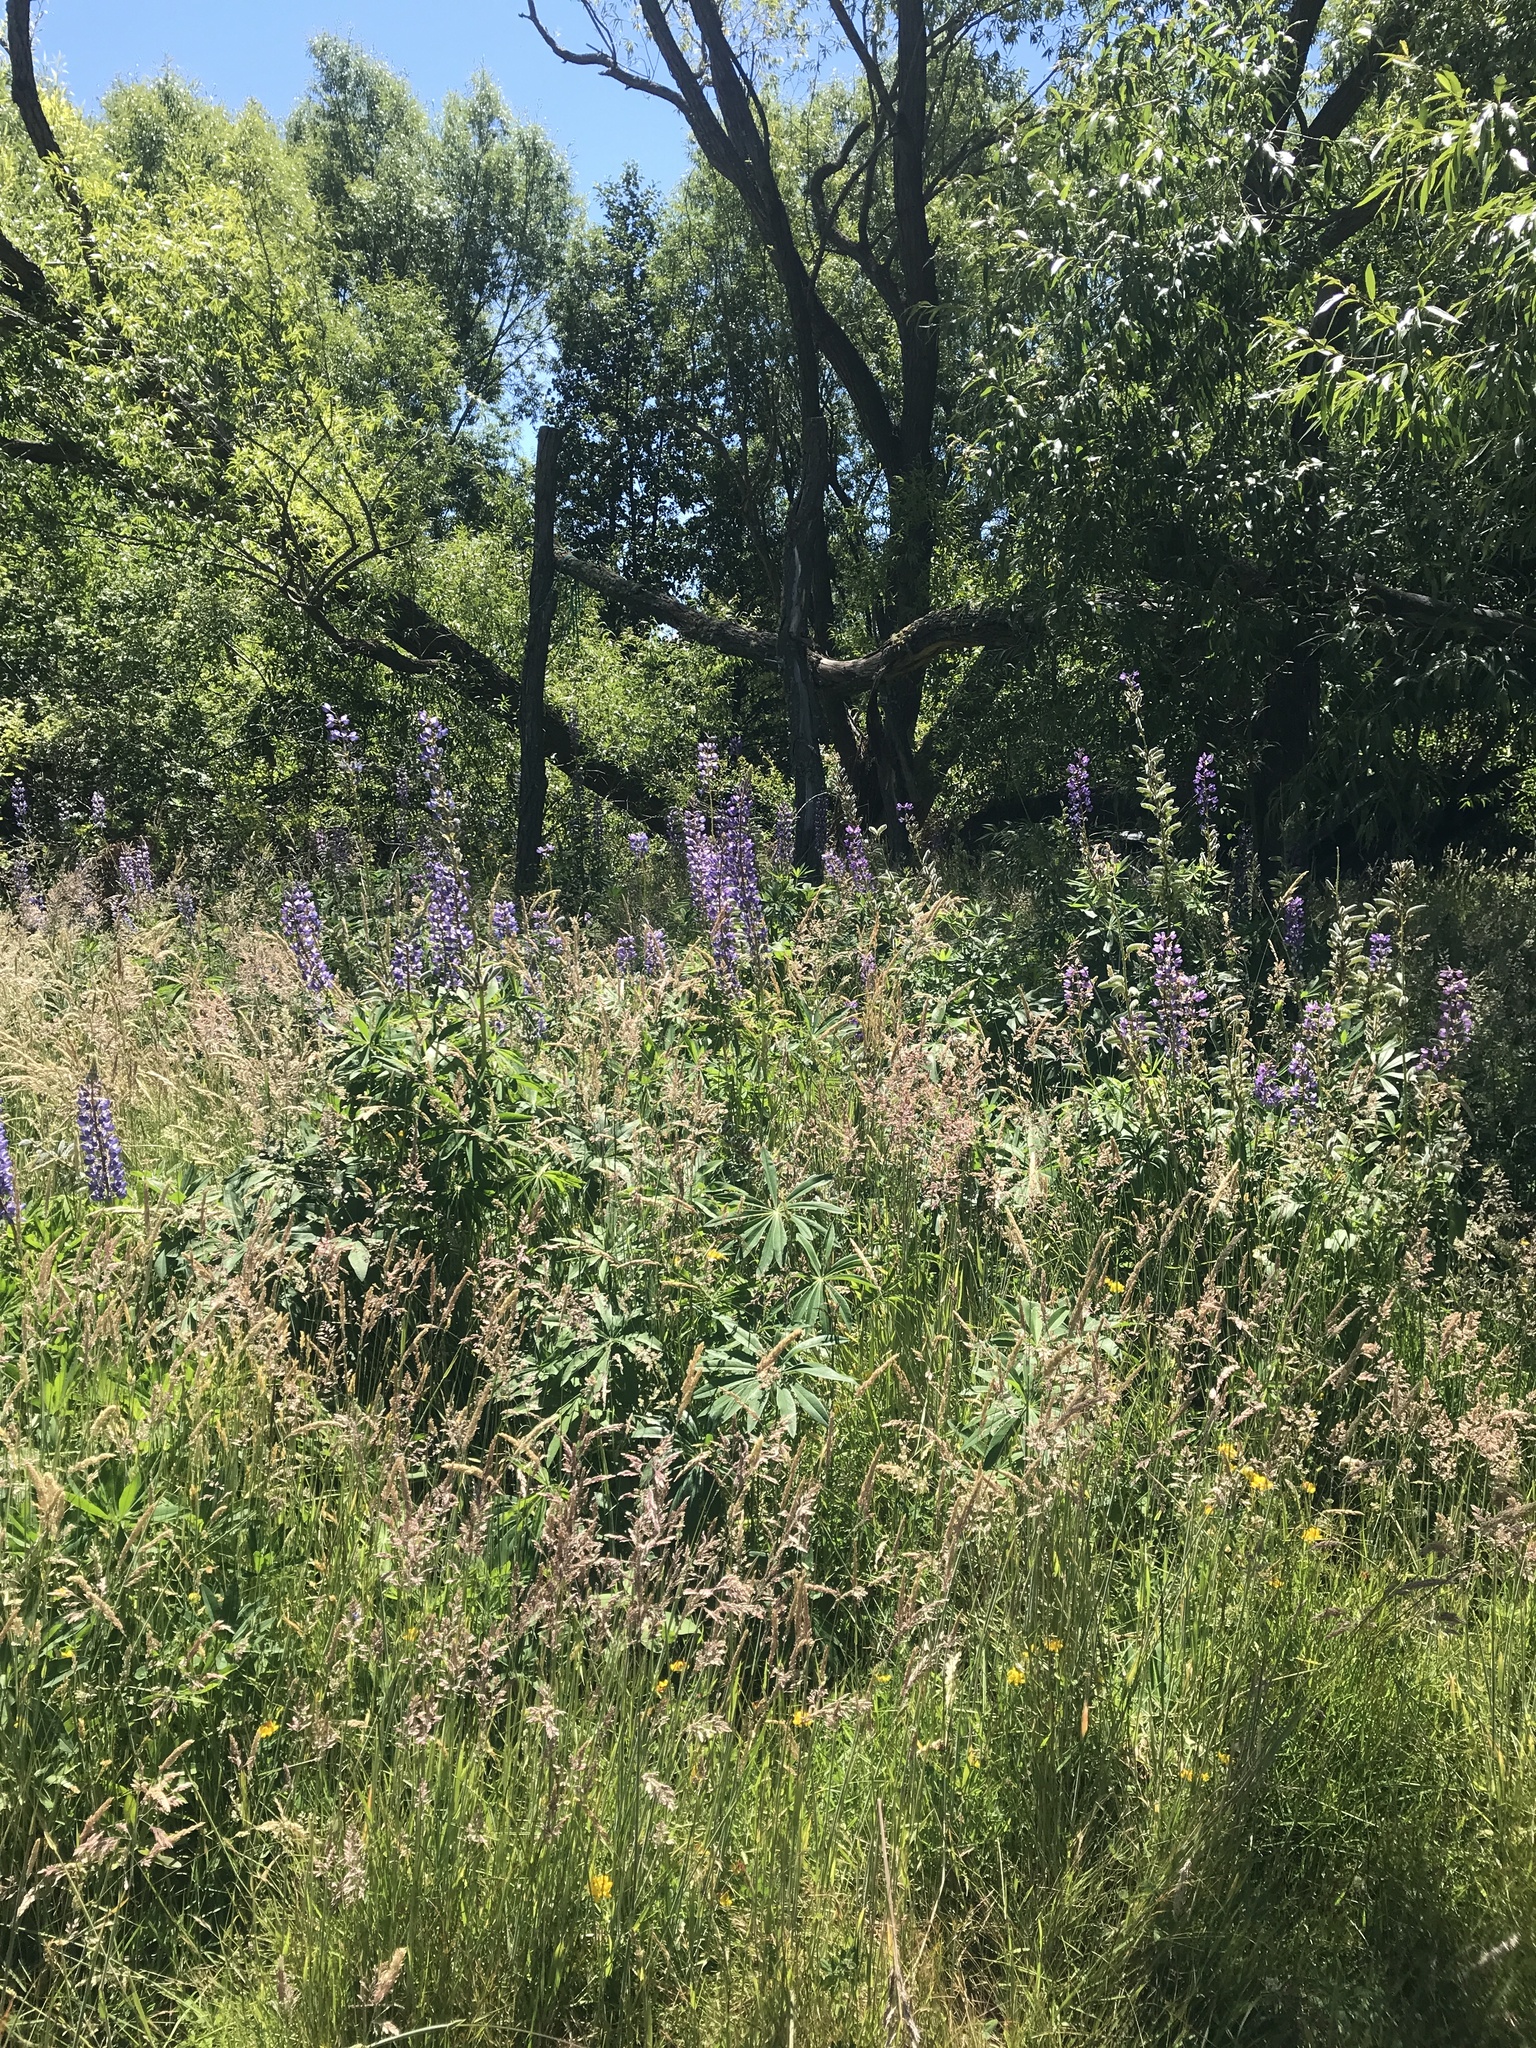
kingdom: Plantae
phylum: Tracheophyta
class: Magnoliopsida
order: Fabales
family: Fabaceae
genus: Lupinus
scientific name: Lupinus polyphyllus
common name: Garden lupin
